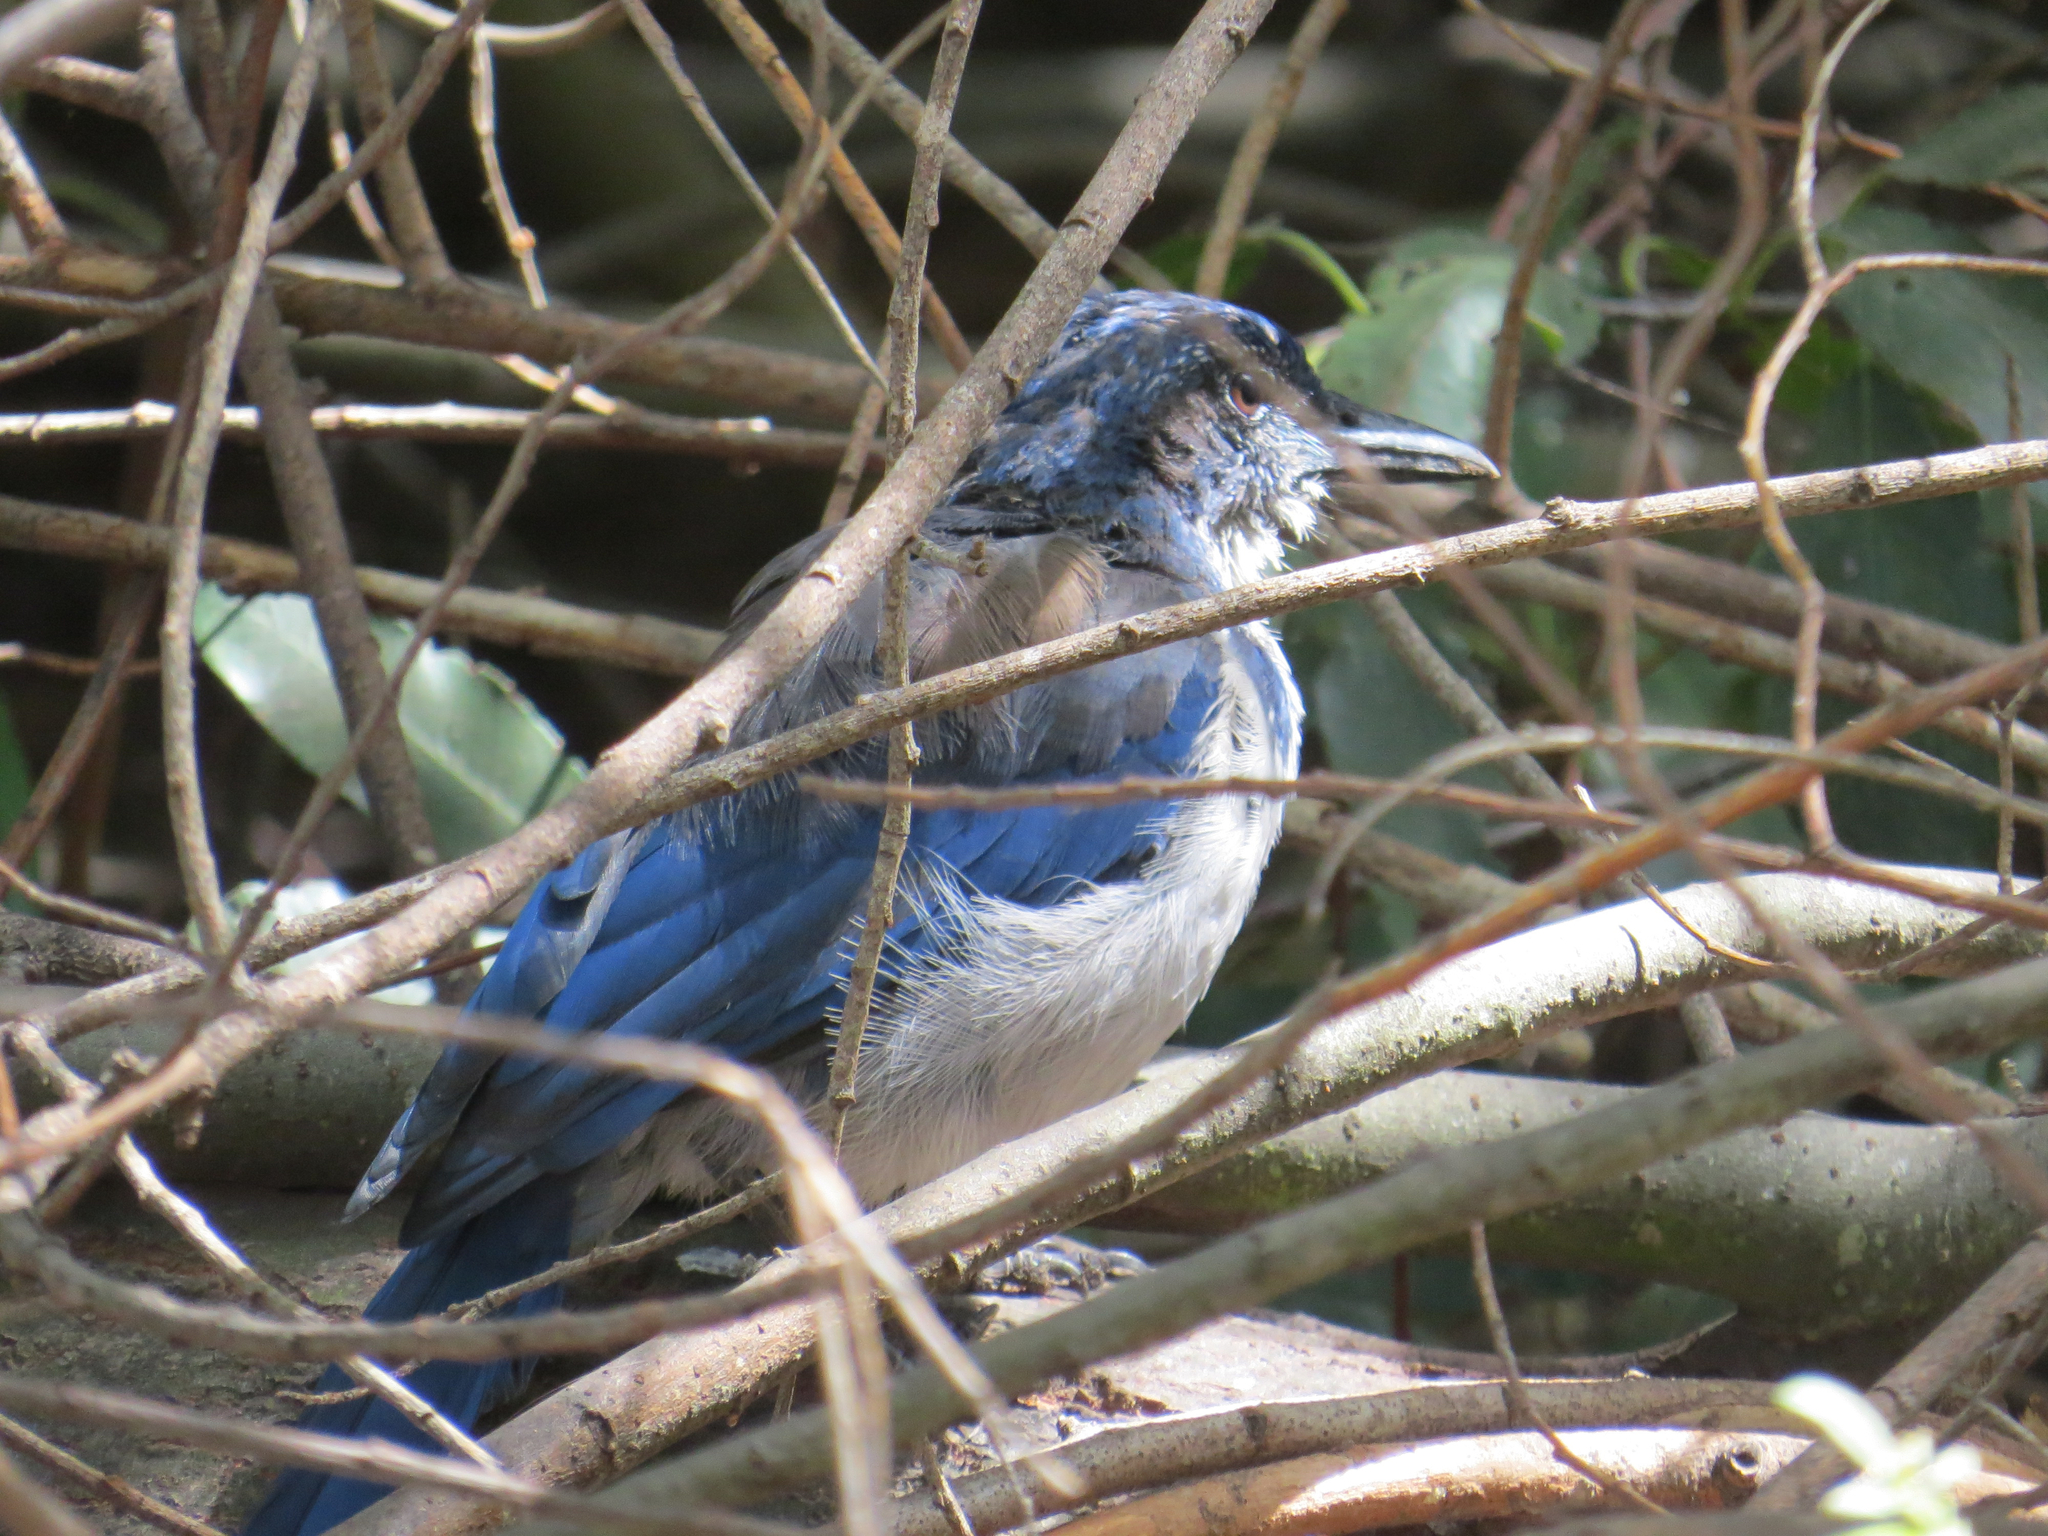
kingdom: Animalia
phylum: Chordata
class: Aves
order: Passeriformes
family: Corvidae
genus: Aphelocoma
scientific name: Aphelocoma insularis
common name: Island scrub-jay
